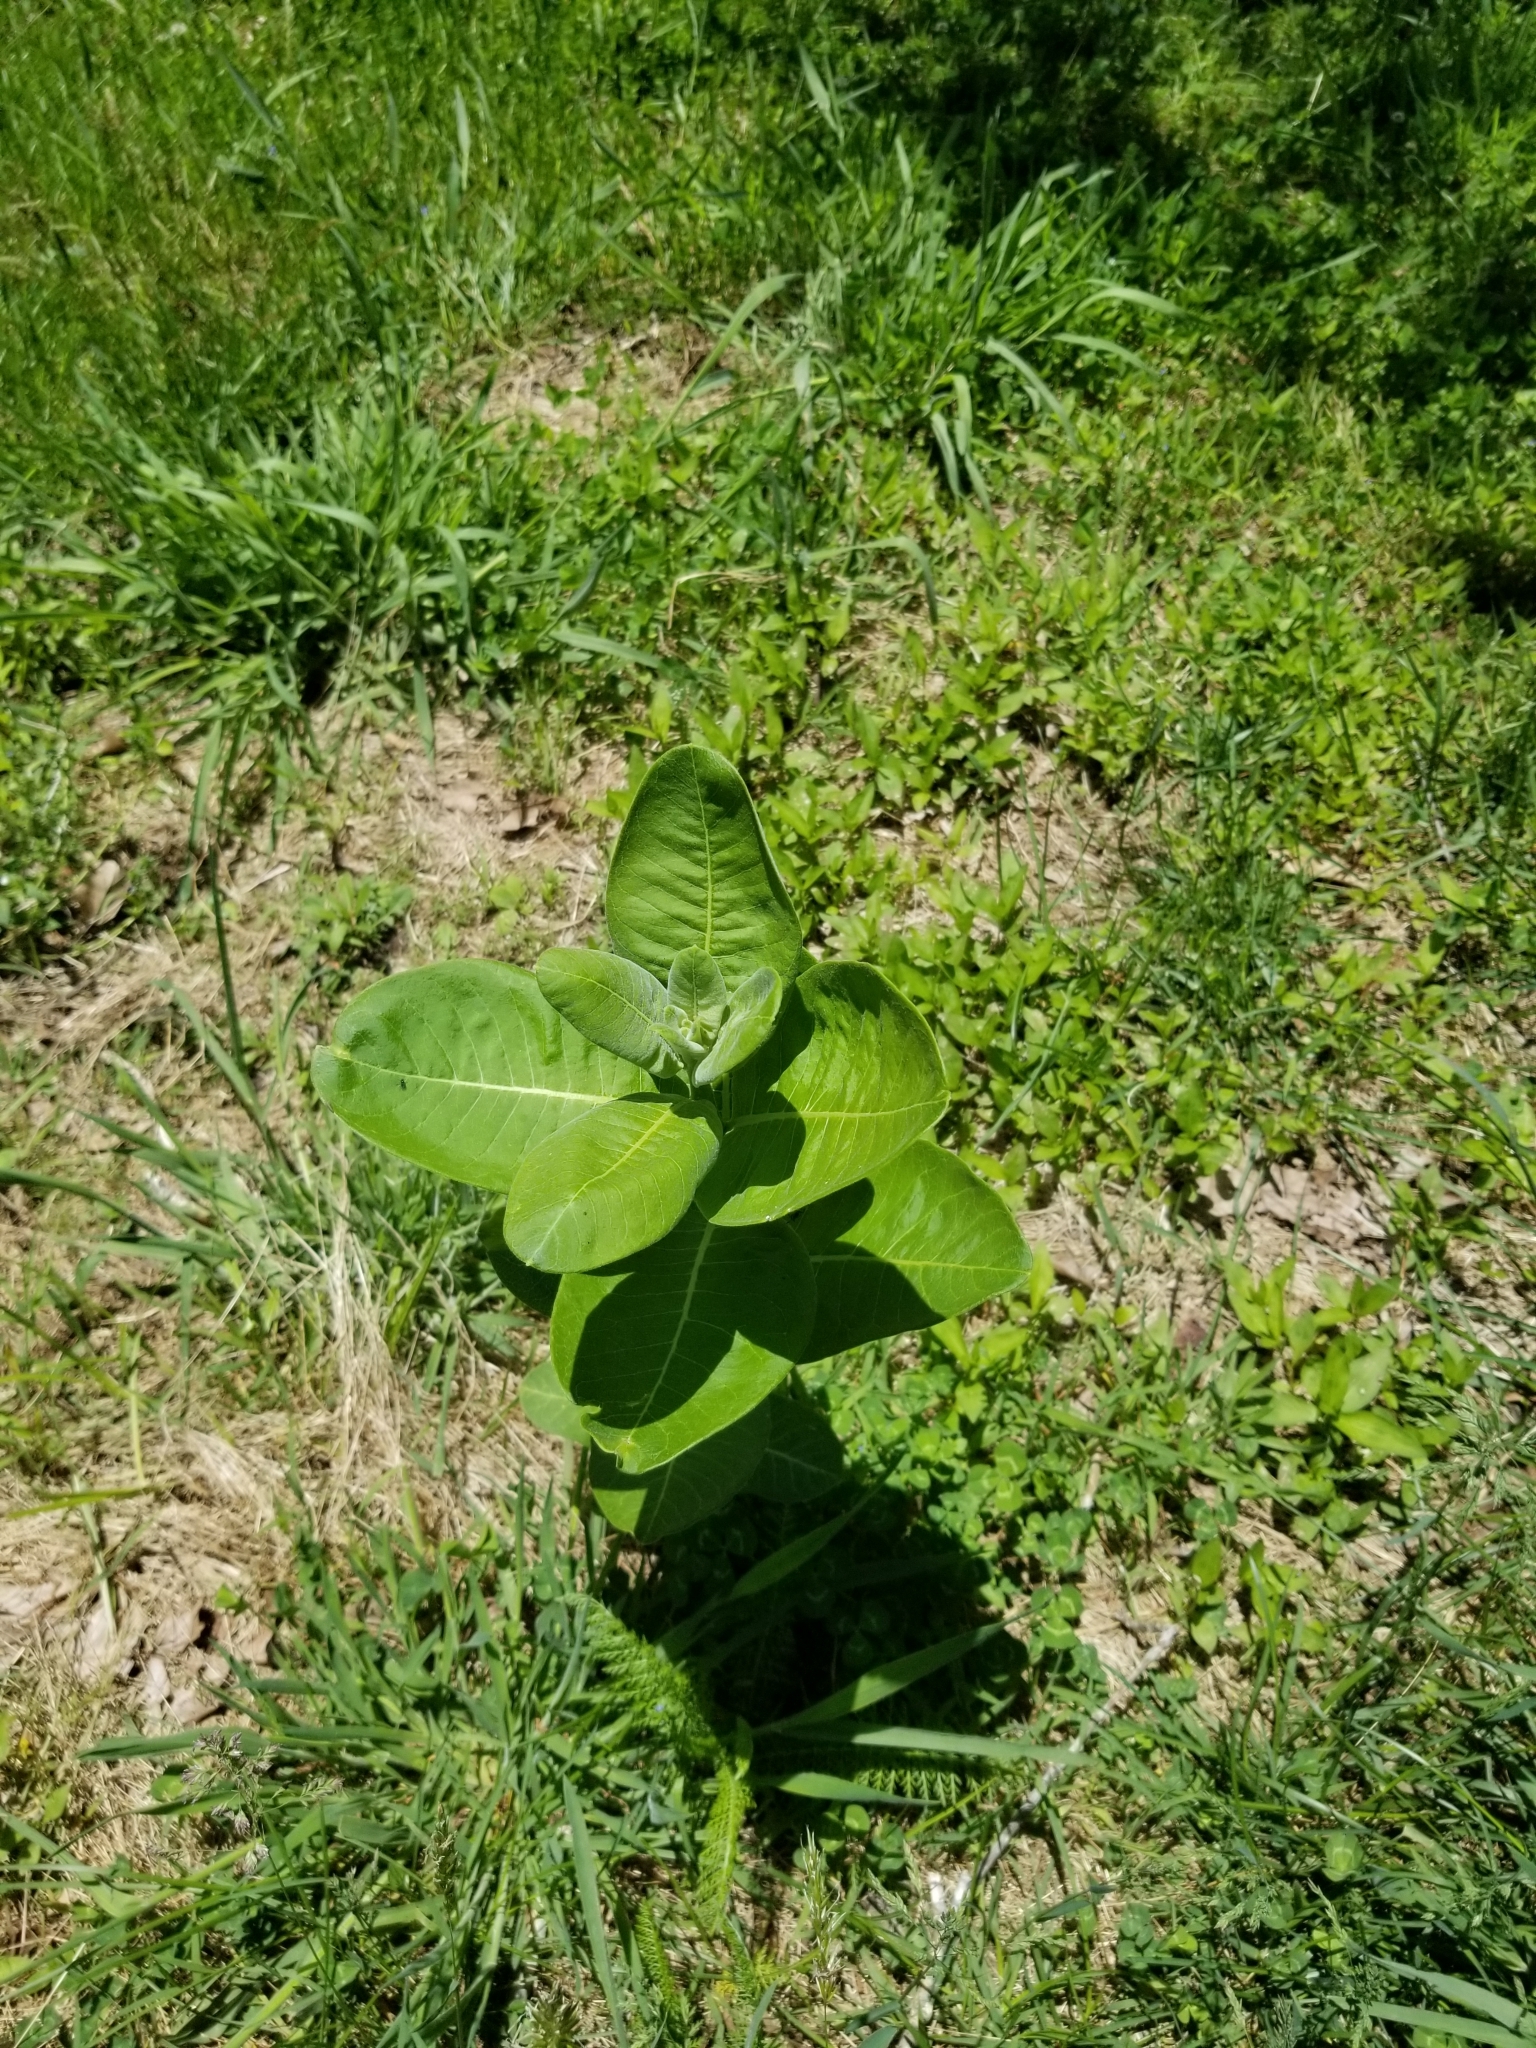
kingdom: Plantae
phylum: Tracheophyta
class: Magnoliopsida
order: Gentianales
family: Apocynaceae
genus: Asclepias
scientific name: Asclepias syriaca
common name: Common milkweed
